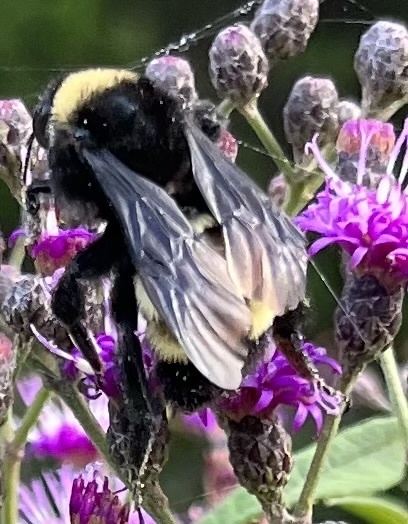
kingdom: Animalia
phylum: Arthropoda
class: Insecta
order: Hymenoptera
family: Apidae
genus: Bombus
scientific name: Bombus pensylvanicus
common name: Bumble bee
